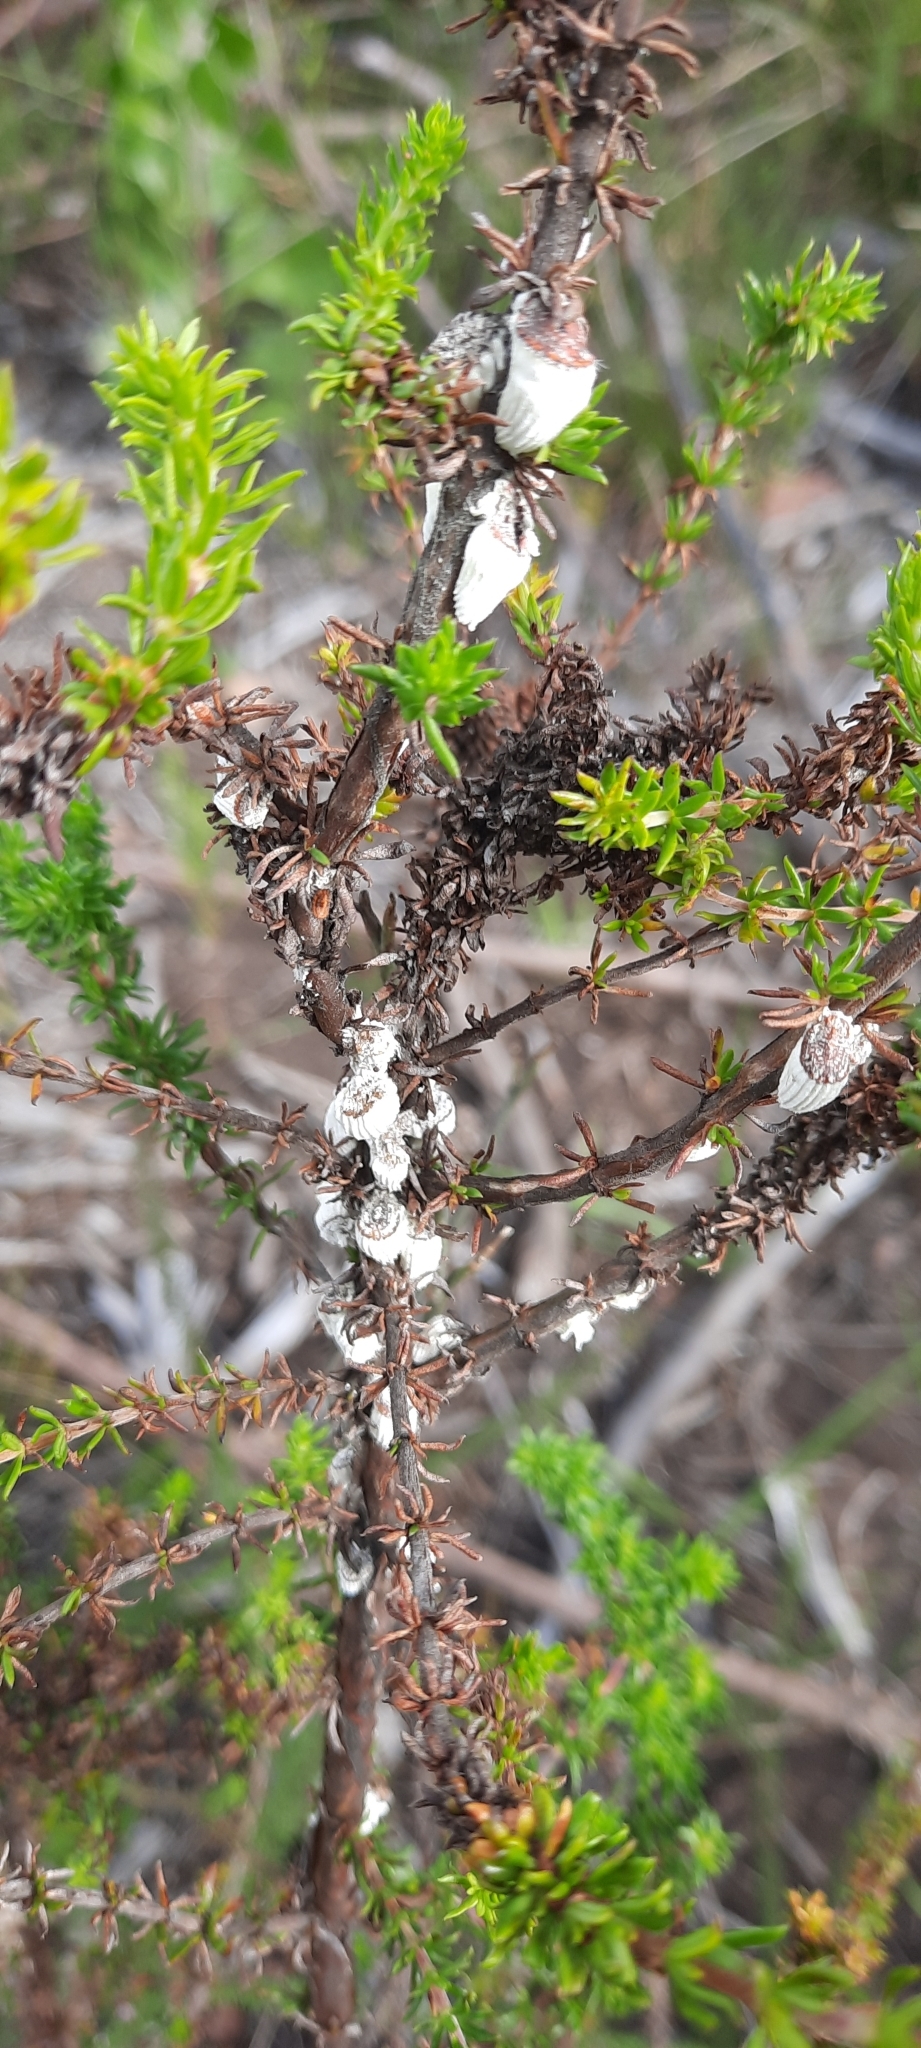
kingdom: Animalia
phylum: Arthropoda
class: Insecta
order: Hemiptera
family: Margarodidae
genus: Icerya
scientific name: Icerya purchasi
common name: Cottony cushion scale
